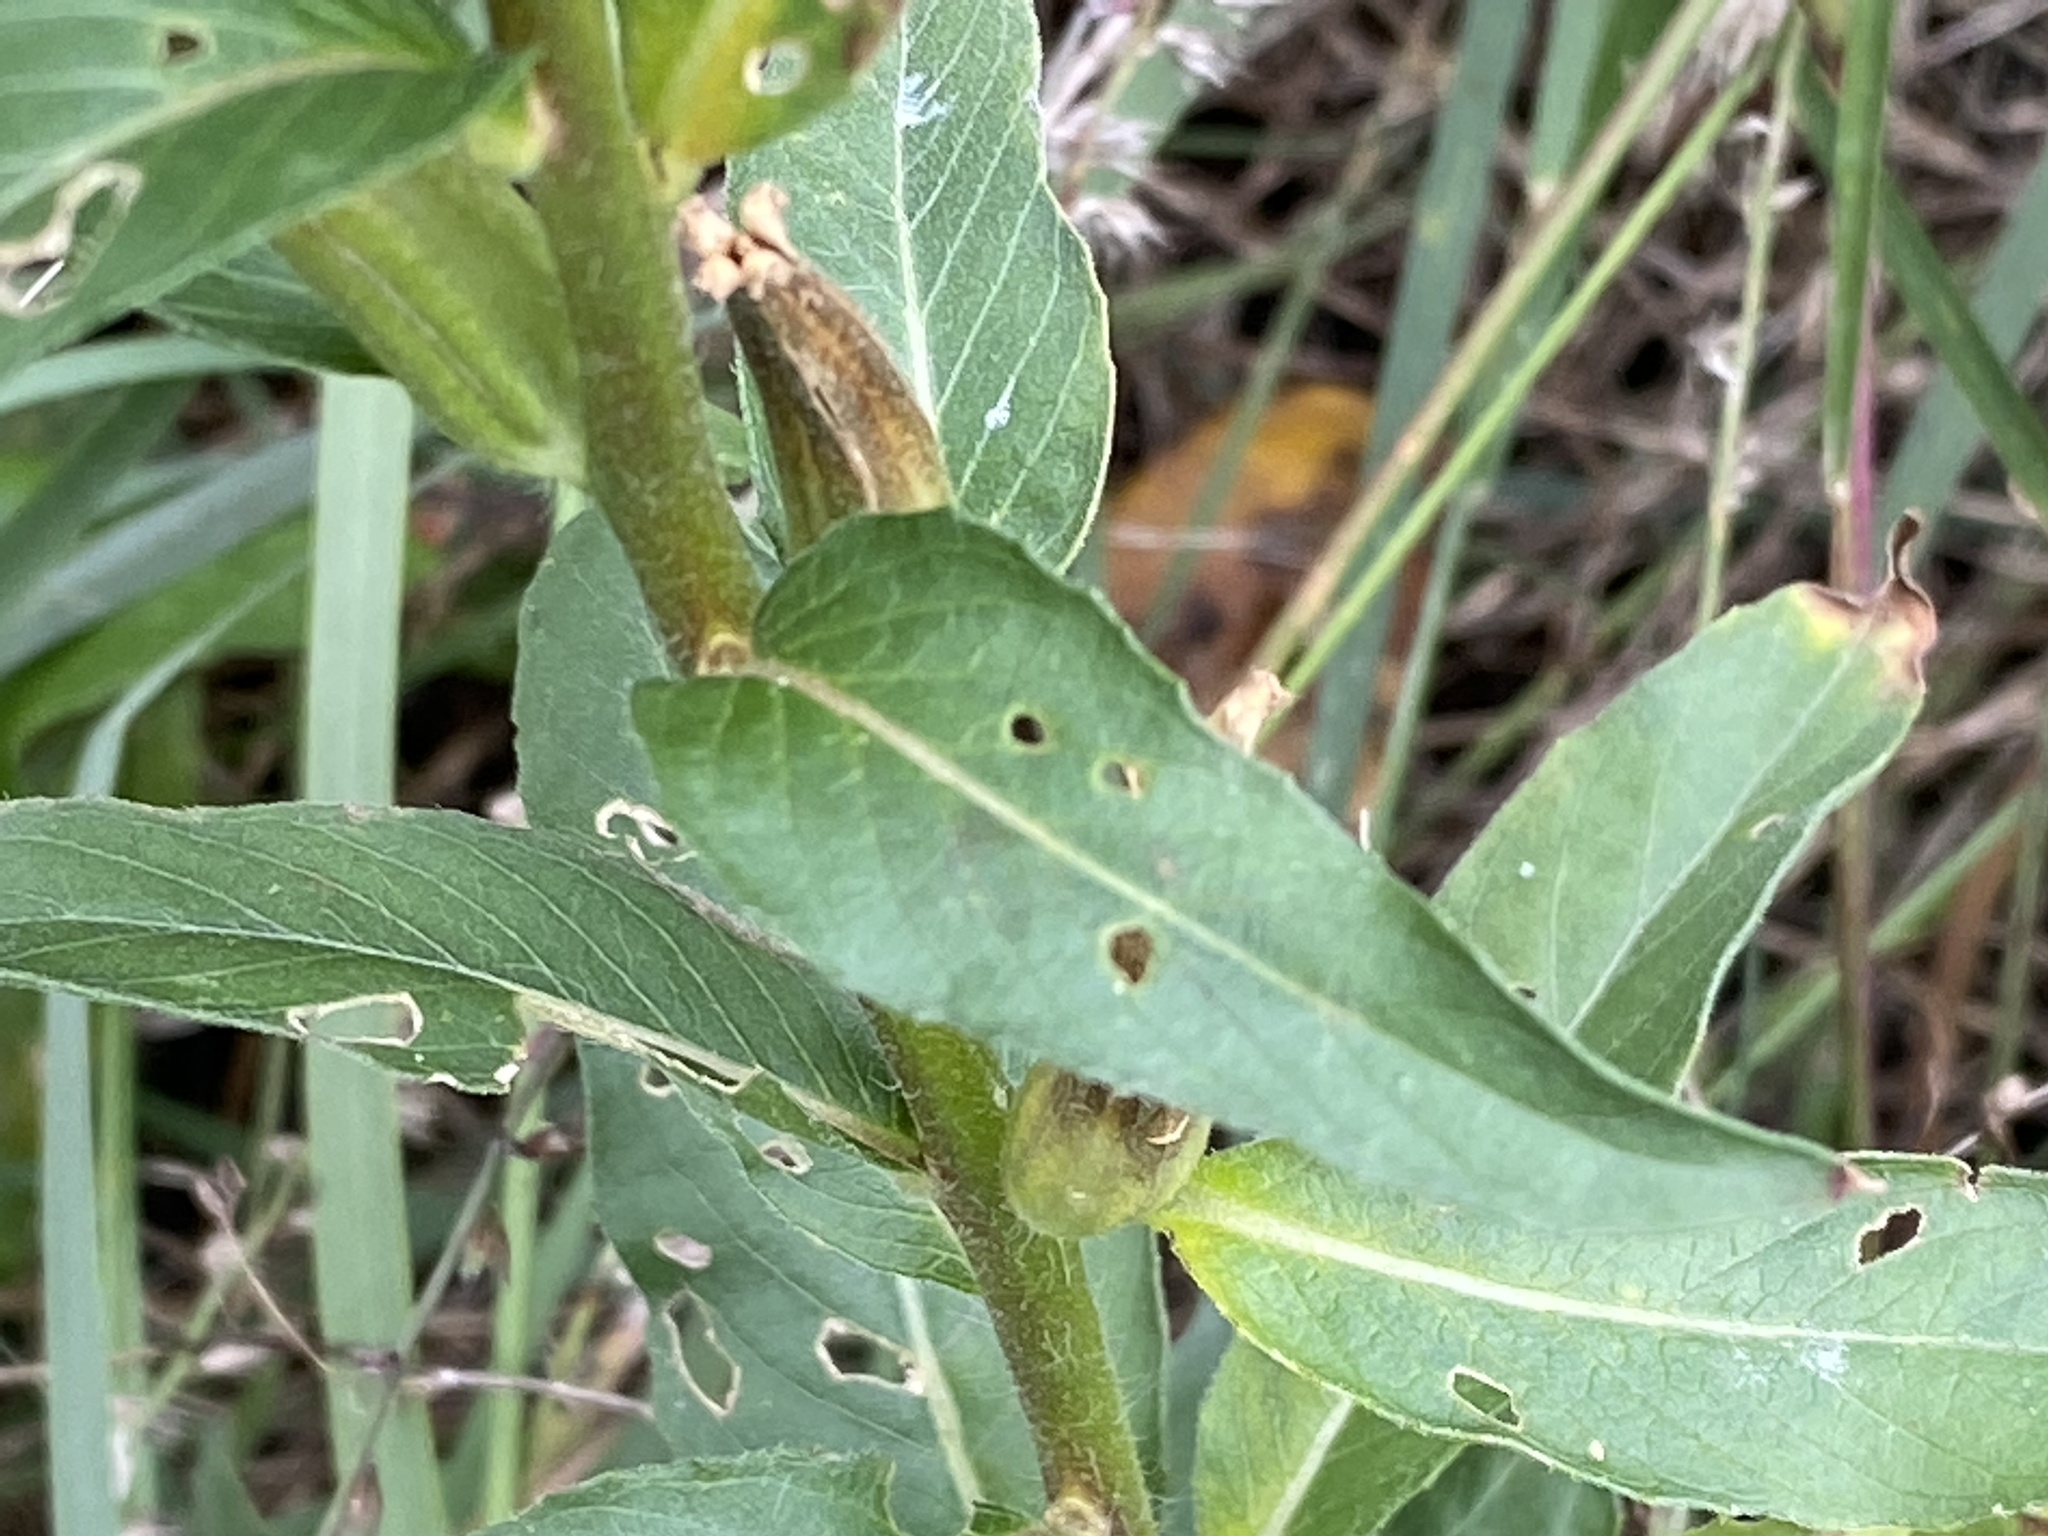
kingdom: Plantae
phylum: Tracheophyta
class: Magnoliopsida
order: Myrtales
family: Onagraceae
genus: Oenothera
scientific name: Oenothera biennis
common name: Common evening-primrose
